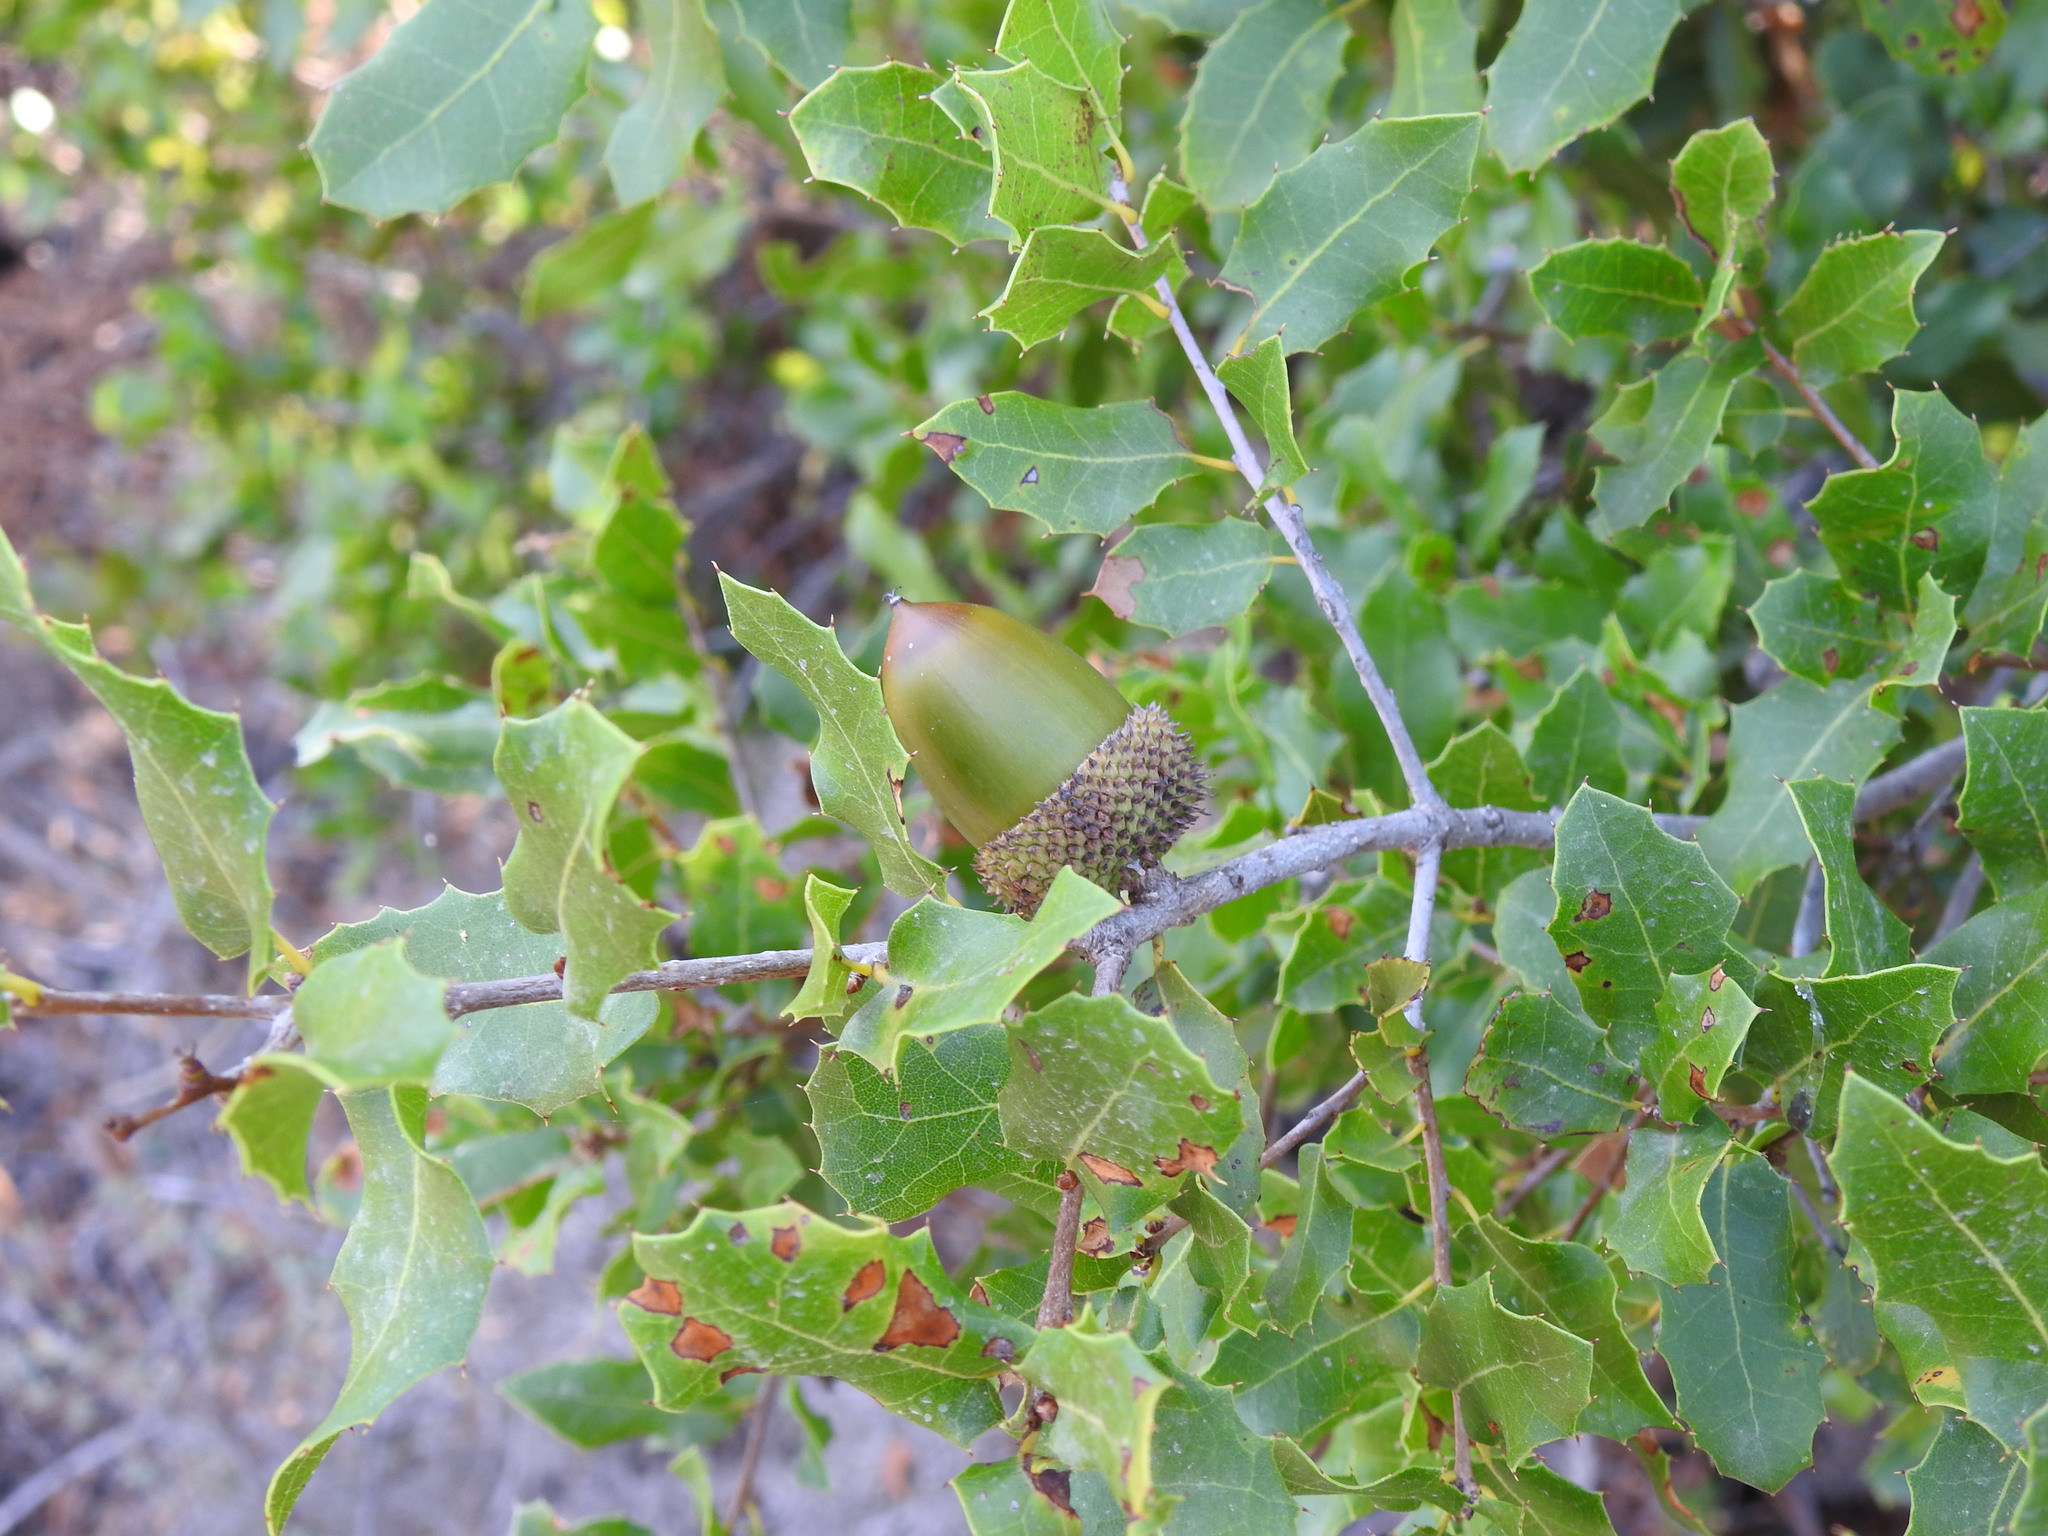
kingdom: Plantae
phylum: Tracheophyta
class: Magnoliopsida
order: Fagales
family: Fagaceae
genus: Quercus
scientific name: Quercus coccifera
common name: Kermes oak
